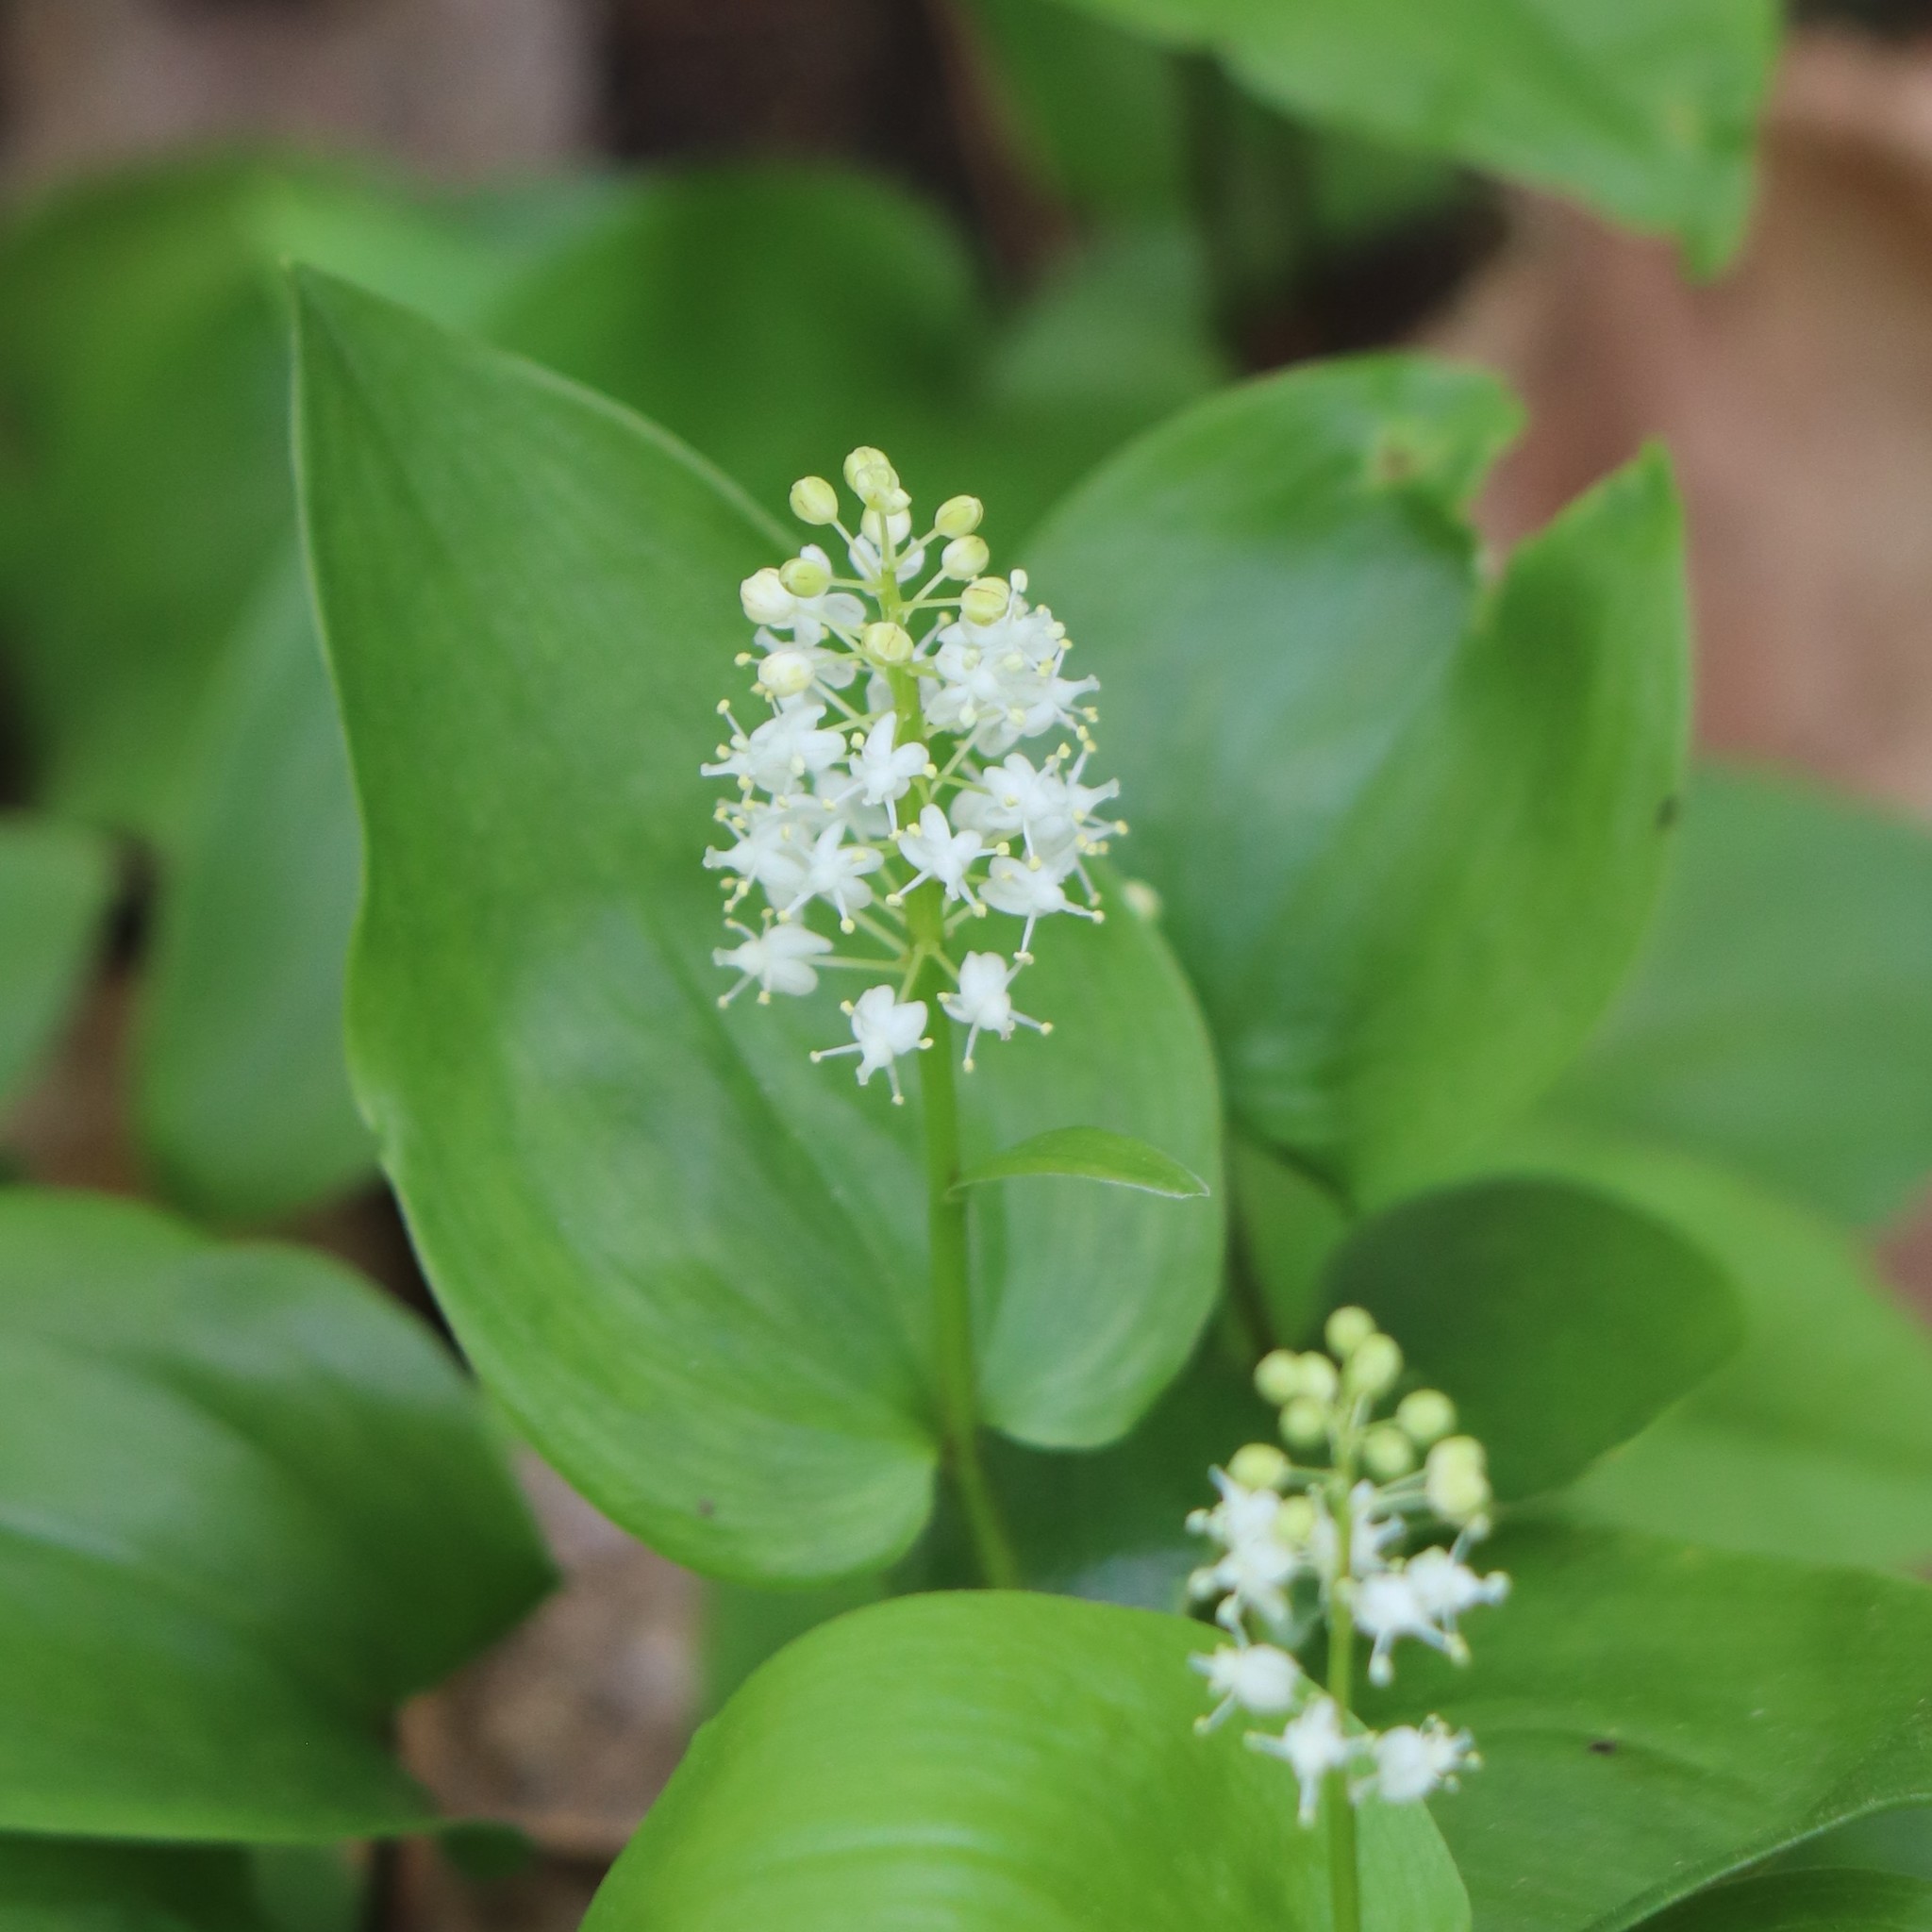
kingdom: Plantae
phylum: Tracheophyta
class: Liliopsida
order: Asparagales
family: Asparagaceae
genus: Maianthemum
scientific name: Maianthemum canadense
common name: False lily-of-the-valley
